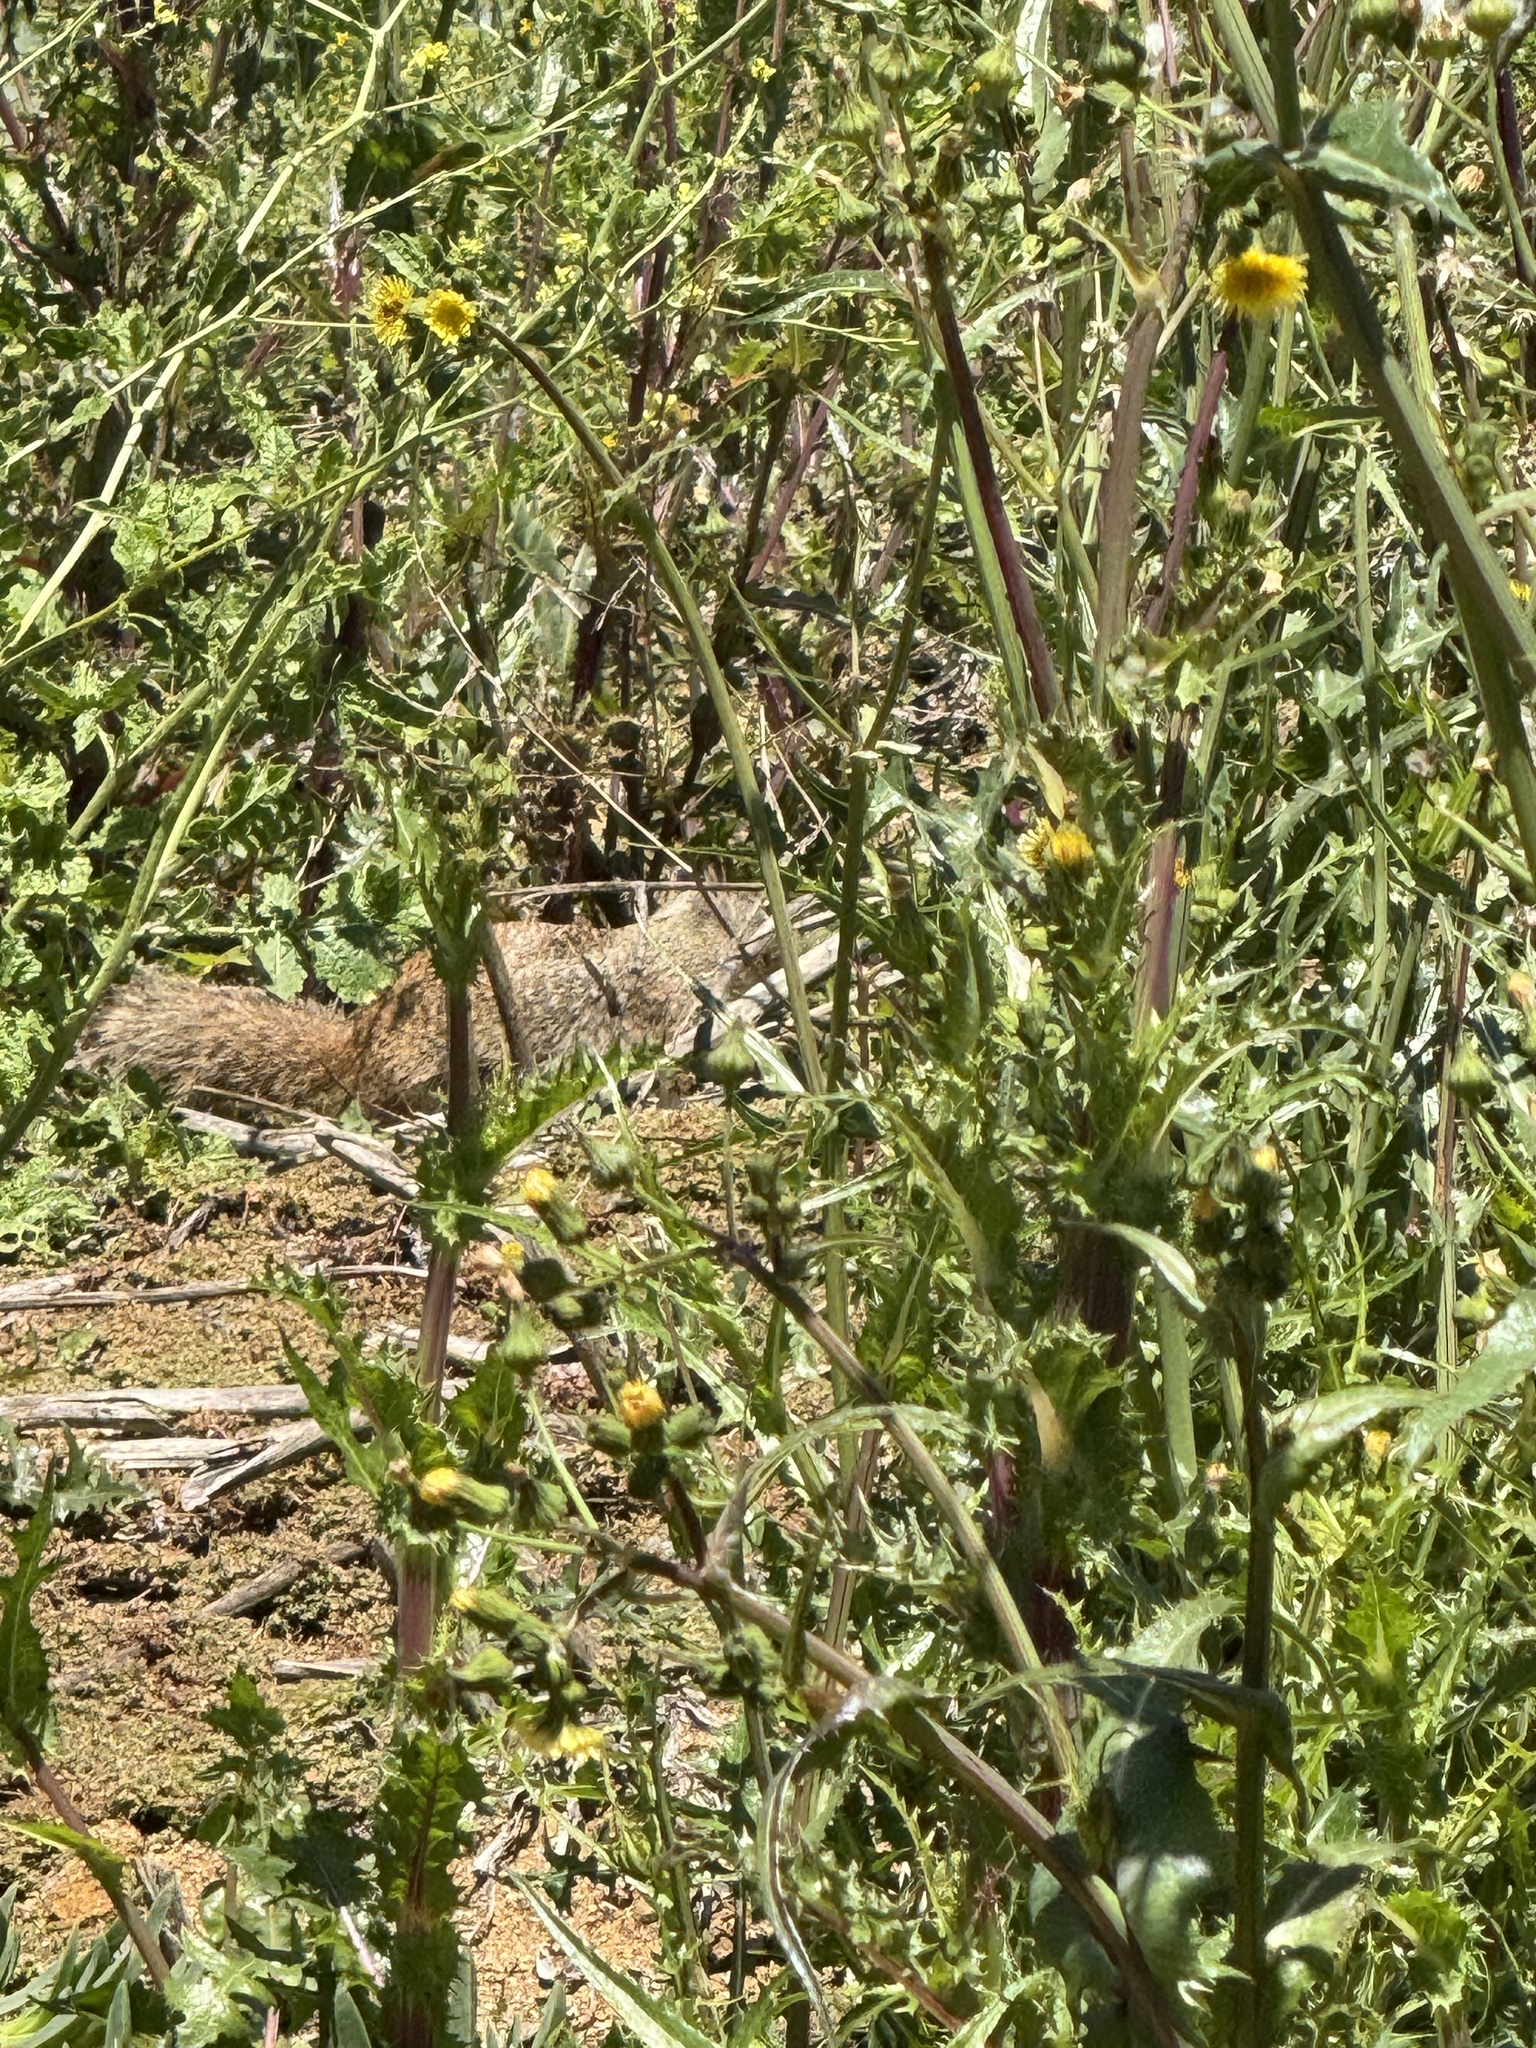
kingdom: Animalia
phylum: Chordata
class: Mammalia
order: Rodentia
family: Sciuridae
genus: Otospermophilus
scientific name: Otospermophilus beecheyi
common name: California ground squirrel
